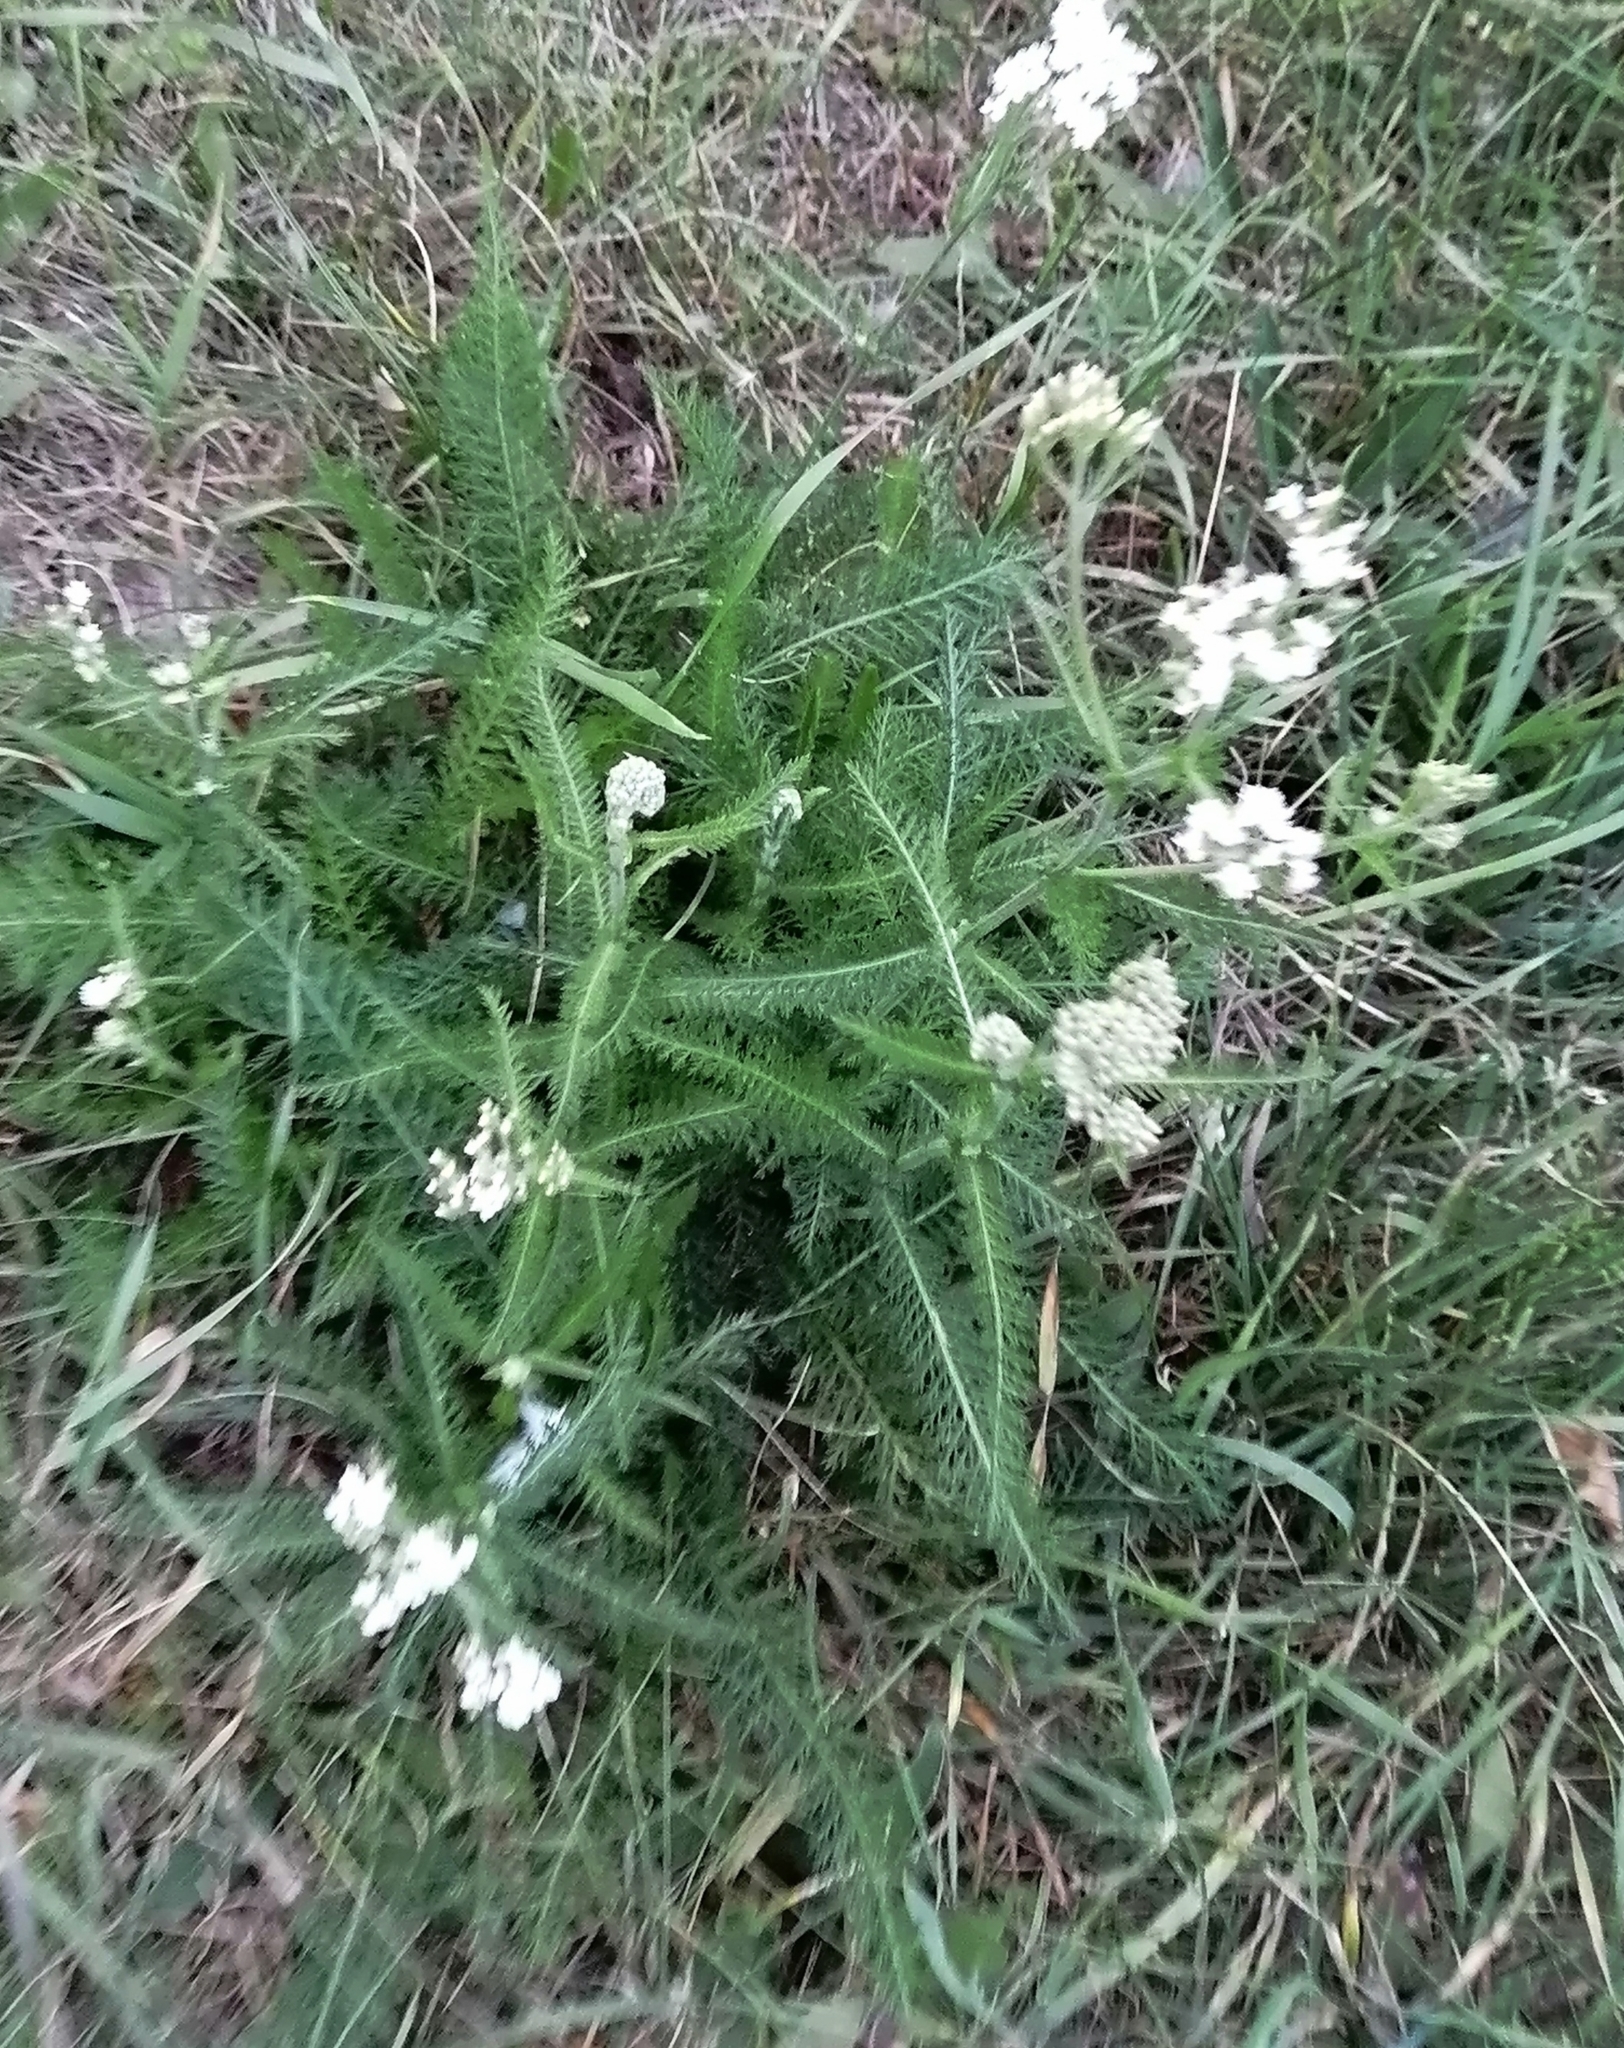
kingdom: Plantae
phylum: Tracheophyta
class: Magnoliopsida
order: Asterales
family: Asteraceae
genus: Achillea
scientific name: Achillea millefolium
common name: Yarrow
